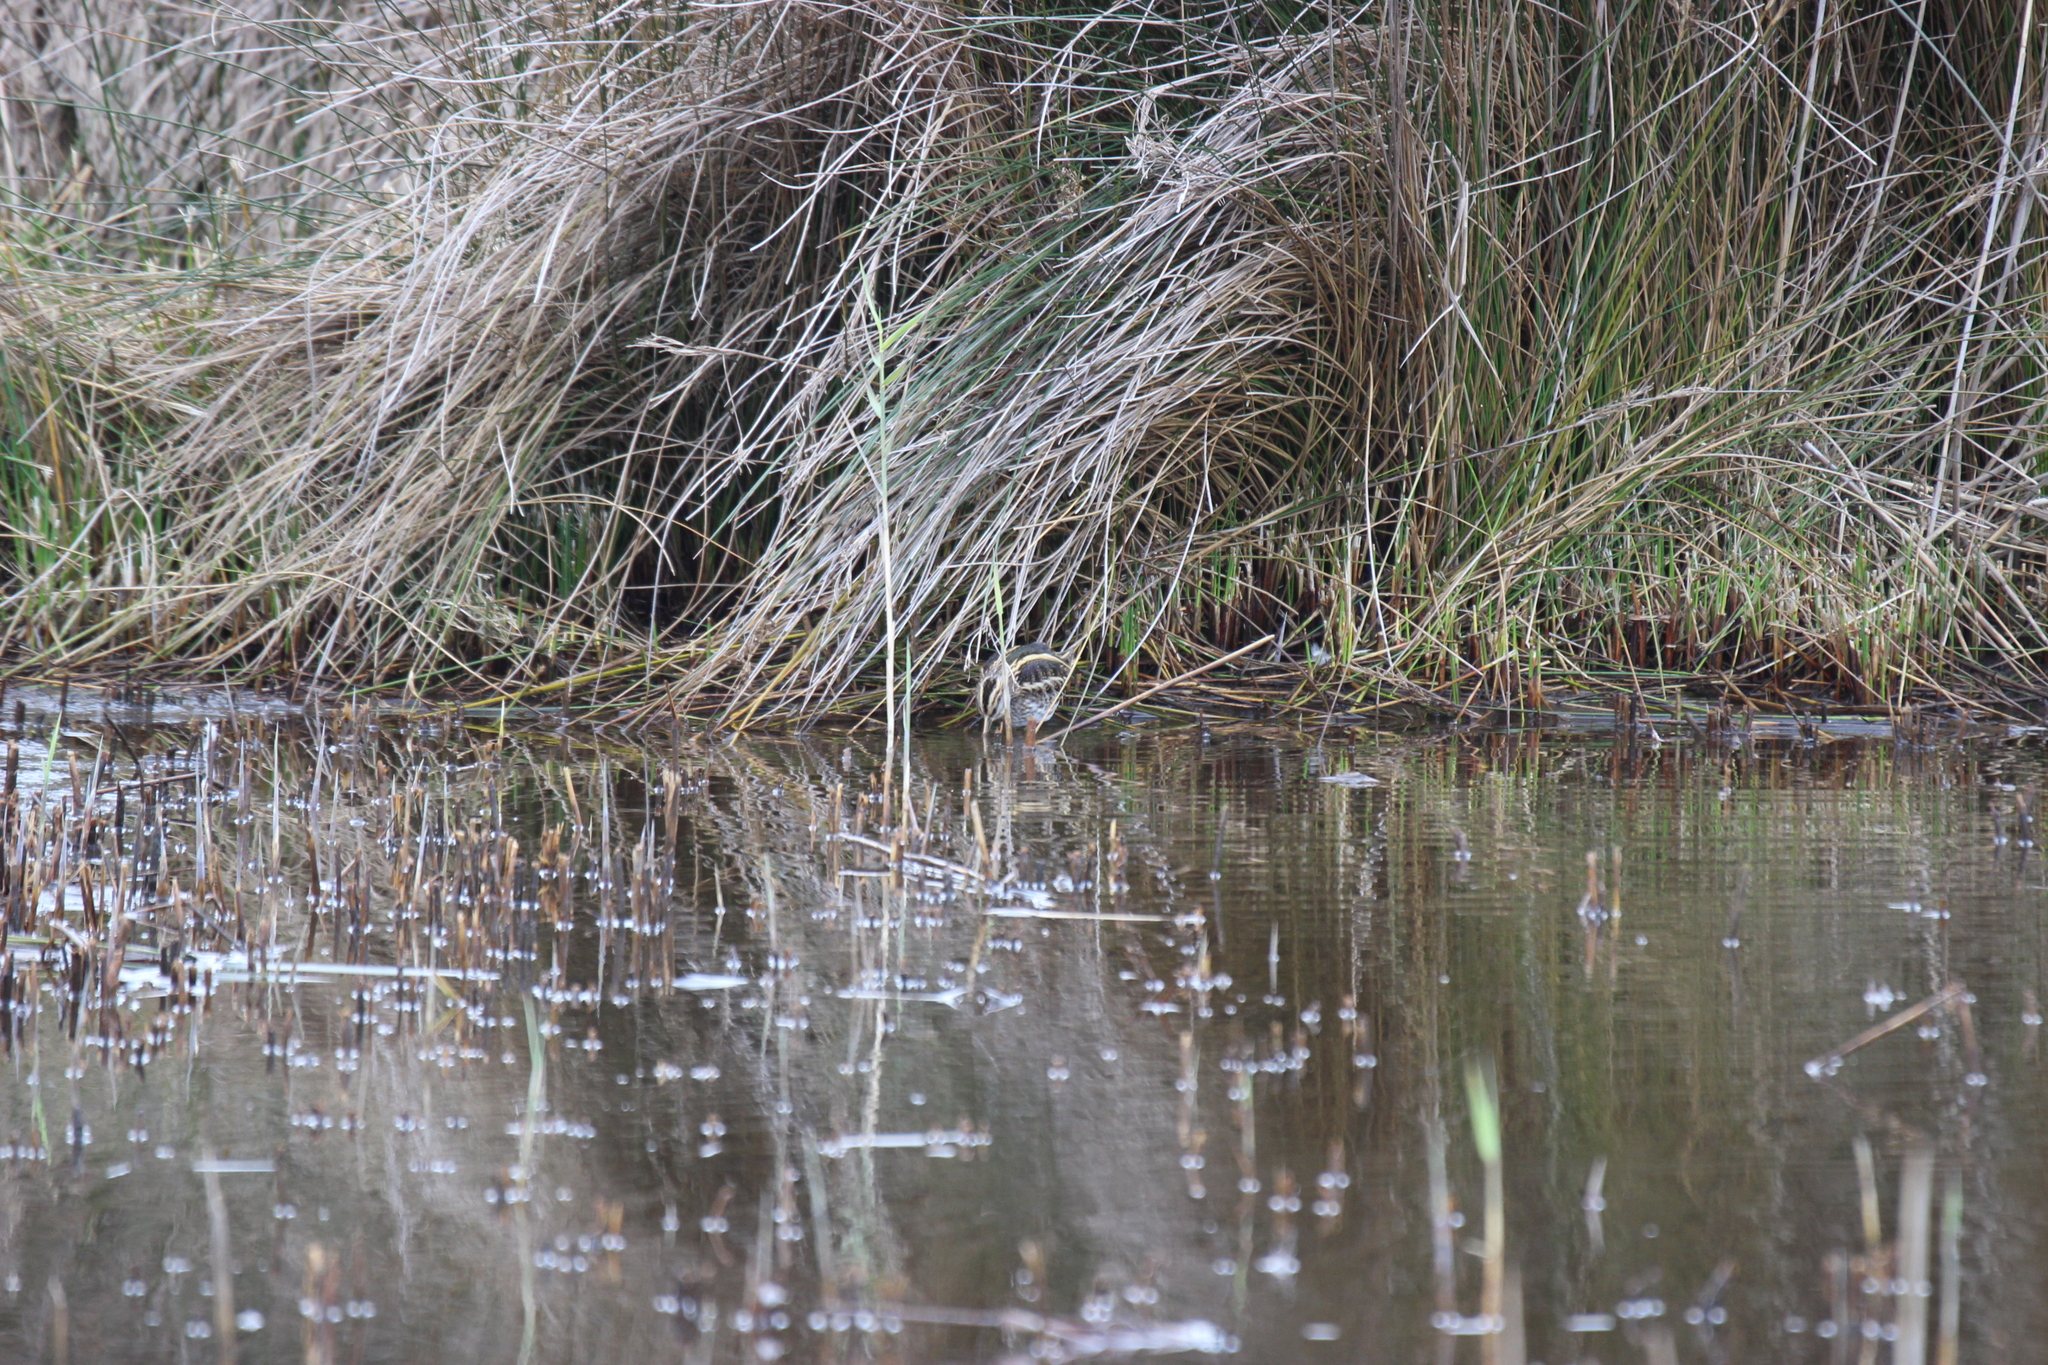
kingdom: Animalia
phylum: Chordata
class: Aves
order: Charadriiformes
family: Scolopacidae
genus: Lymnocryptes
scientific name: Lymnocryptes minimus
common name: Jack snipe
